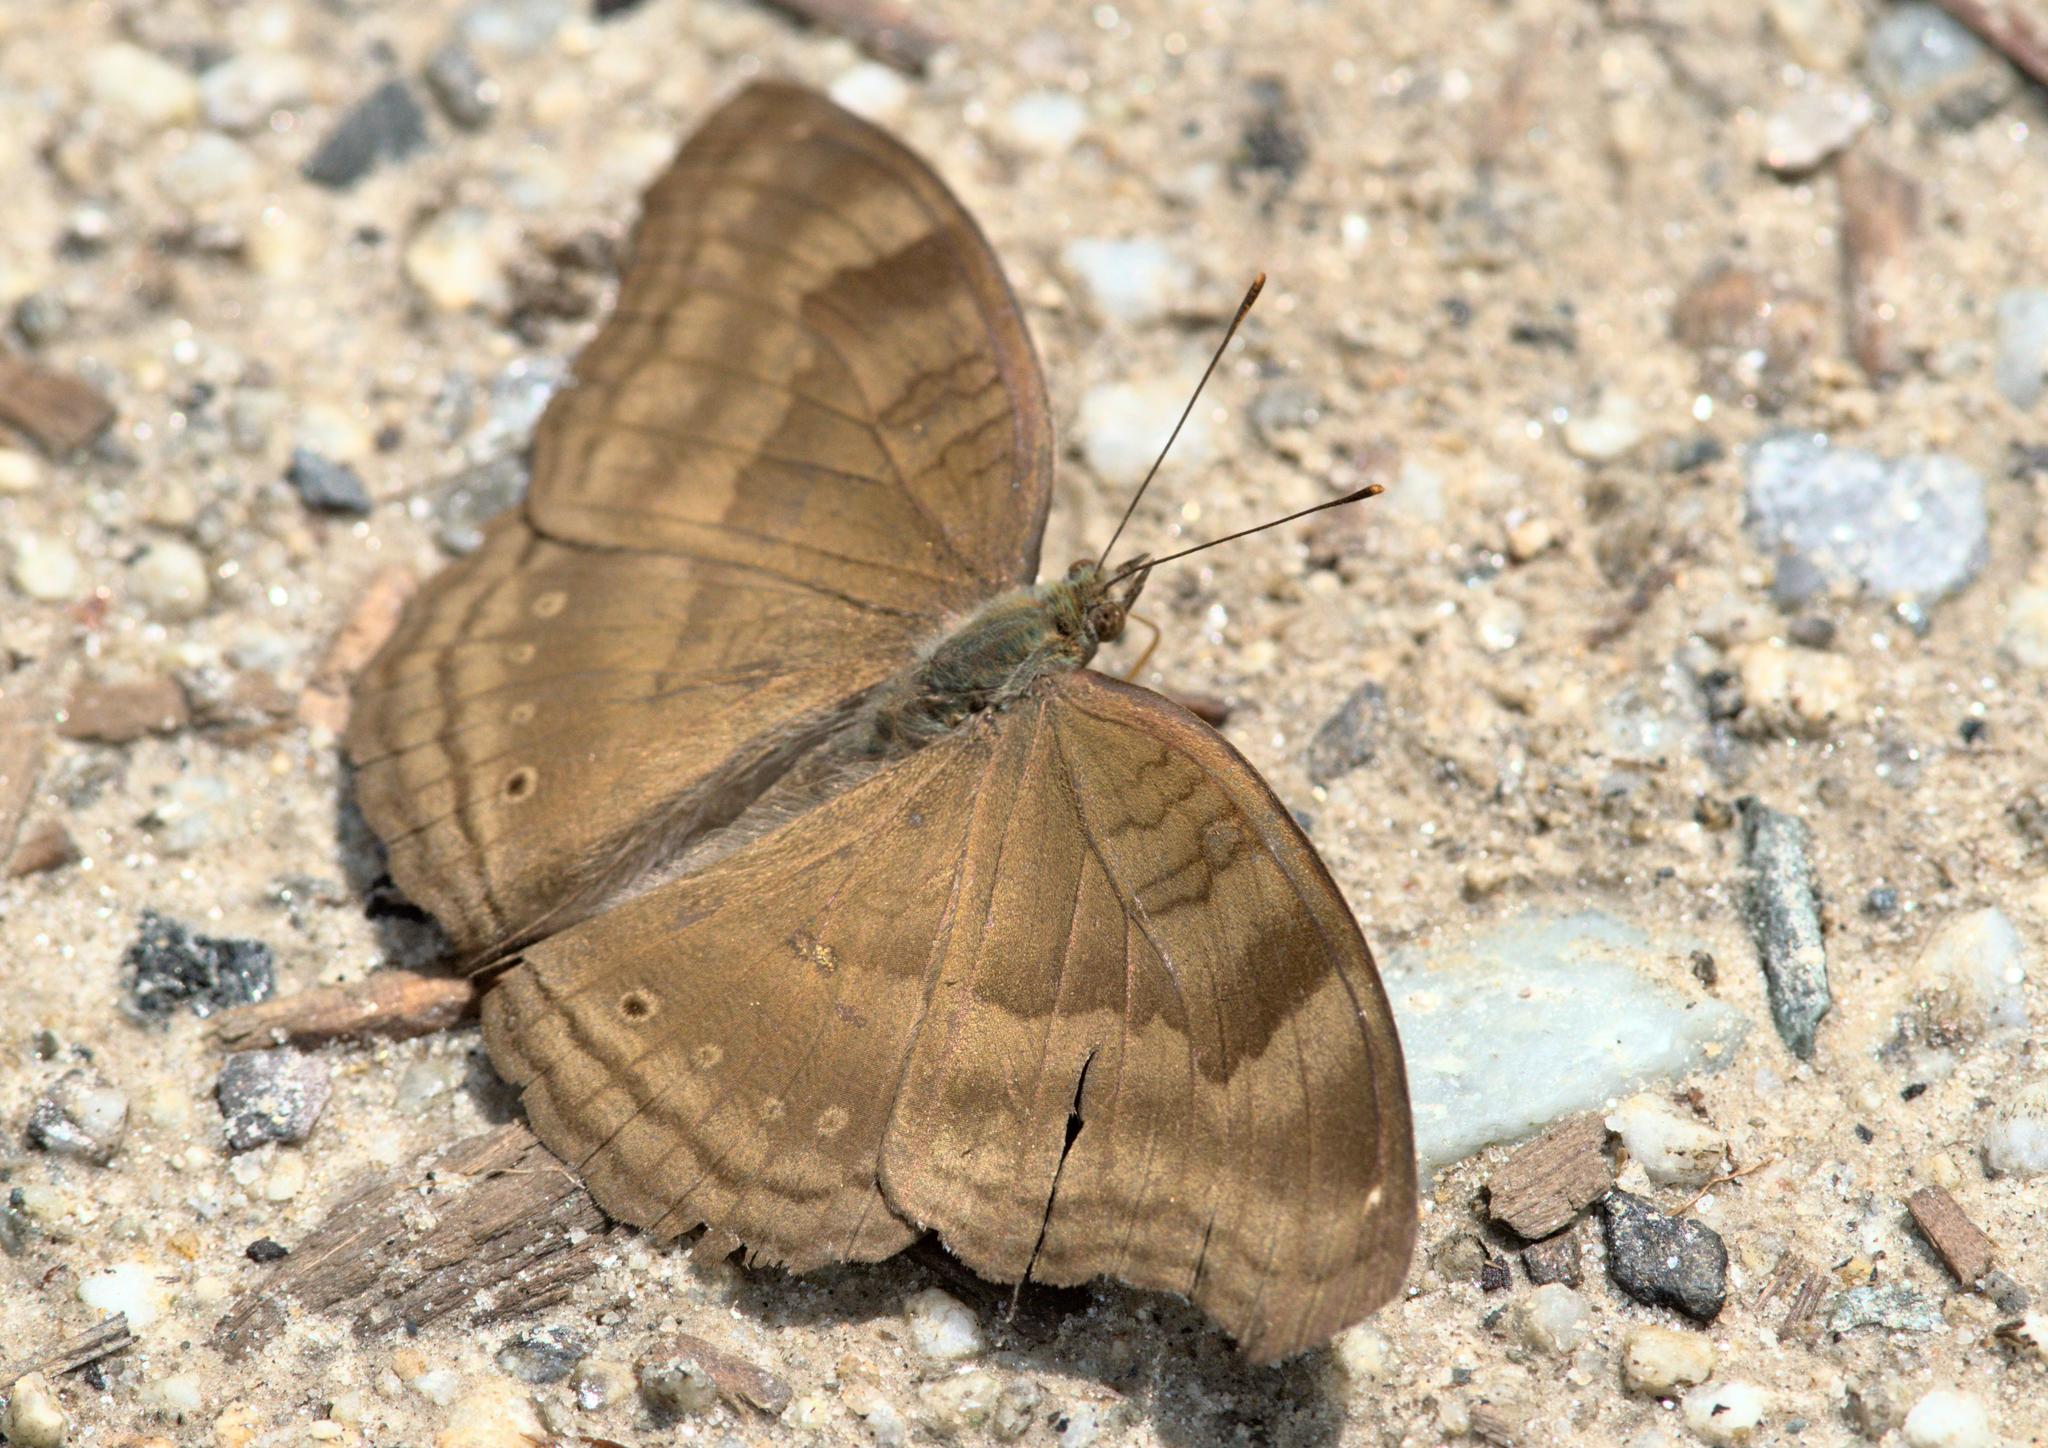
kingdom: Animalia
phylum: Arthropoda
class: Insecta
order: Lepidoptera
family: Nymphalidae
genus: Junonia
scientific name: Junonia iphita
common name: Chocolate pansy
